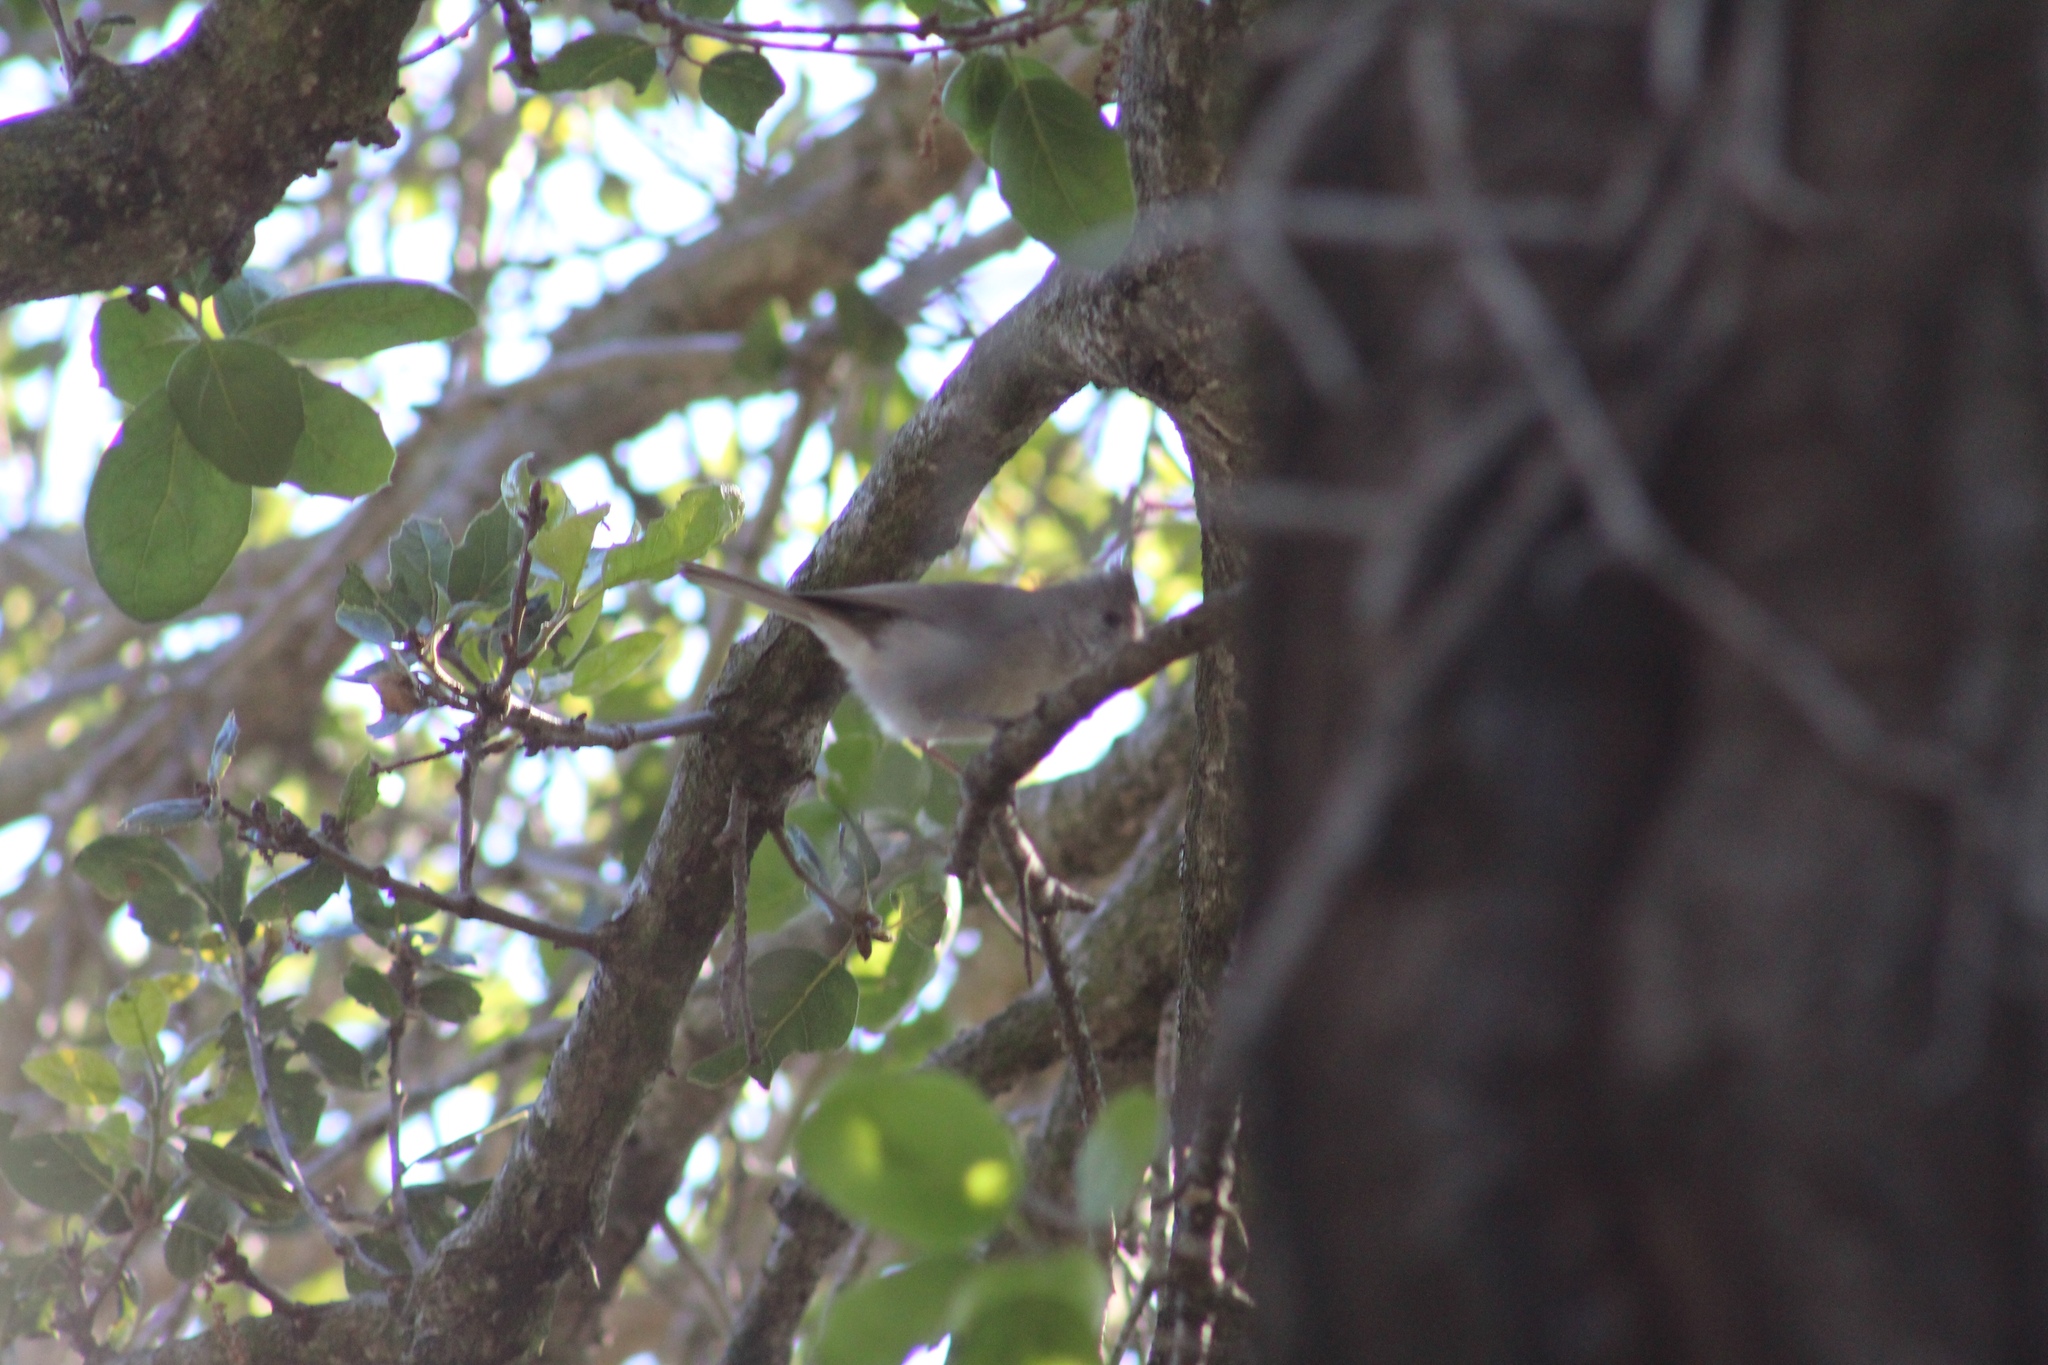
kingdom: Animalia
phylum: Chordata
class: Aves
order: Passeriformes
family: Paridae
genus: Baeolophus
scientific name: Baeolophus inornatus
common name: Oak titmouse
